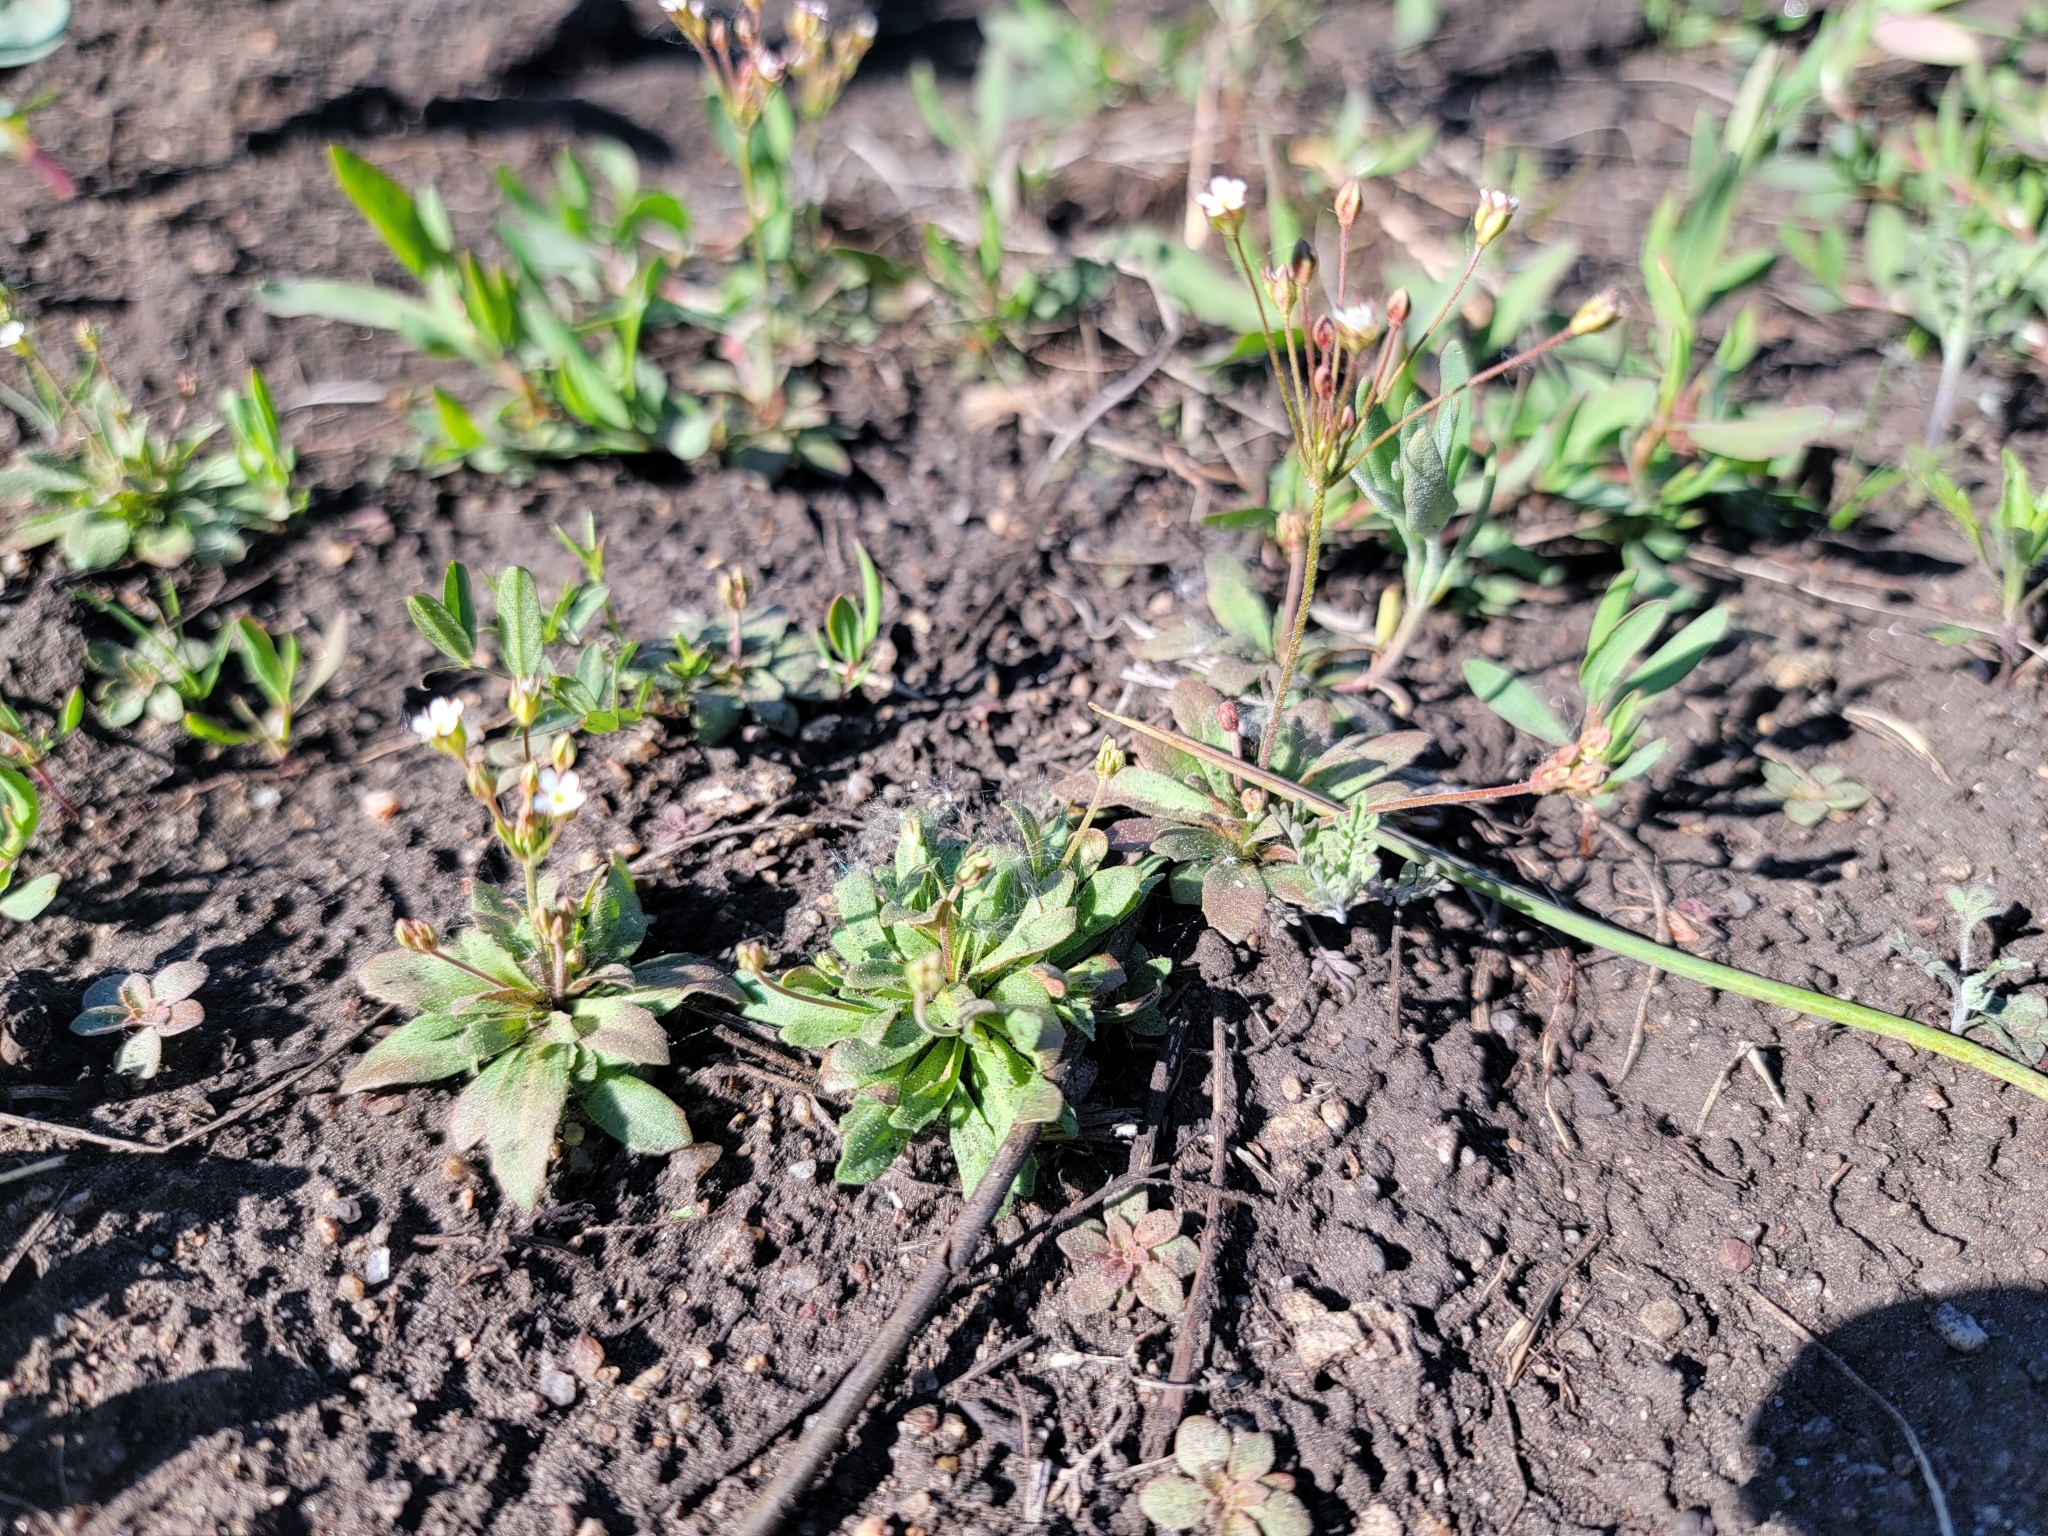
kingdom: Plantae
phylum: Tracheophyta
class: Magnoliopsida
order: Ericales
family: Primulaceae
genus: Androsace
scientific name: Androsace septentrionalis
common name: Hairy northern fairy-candelabra
